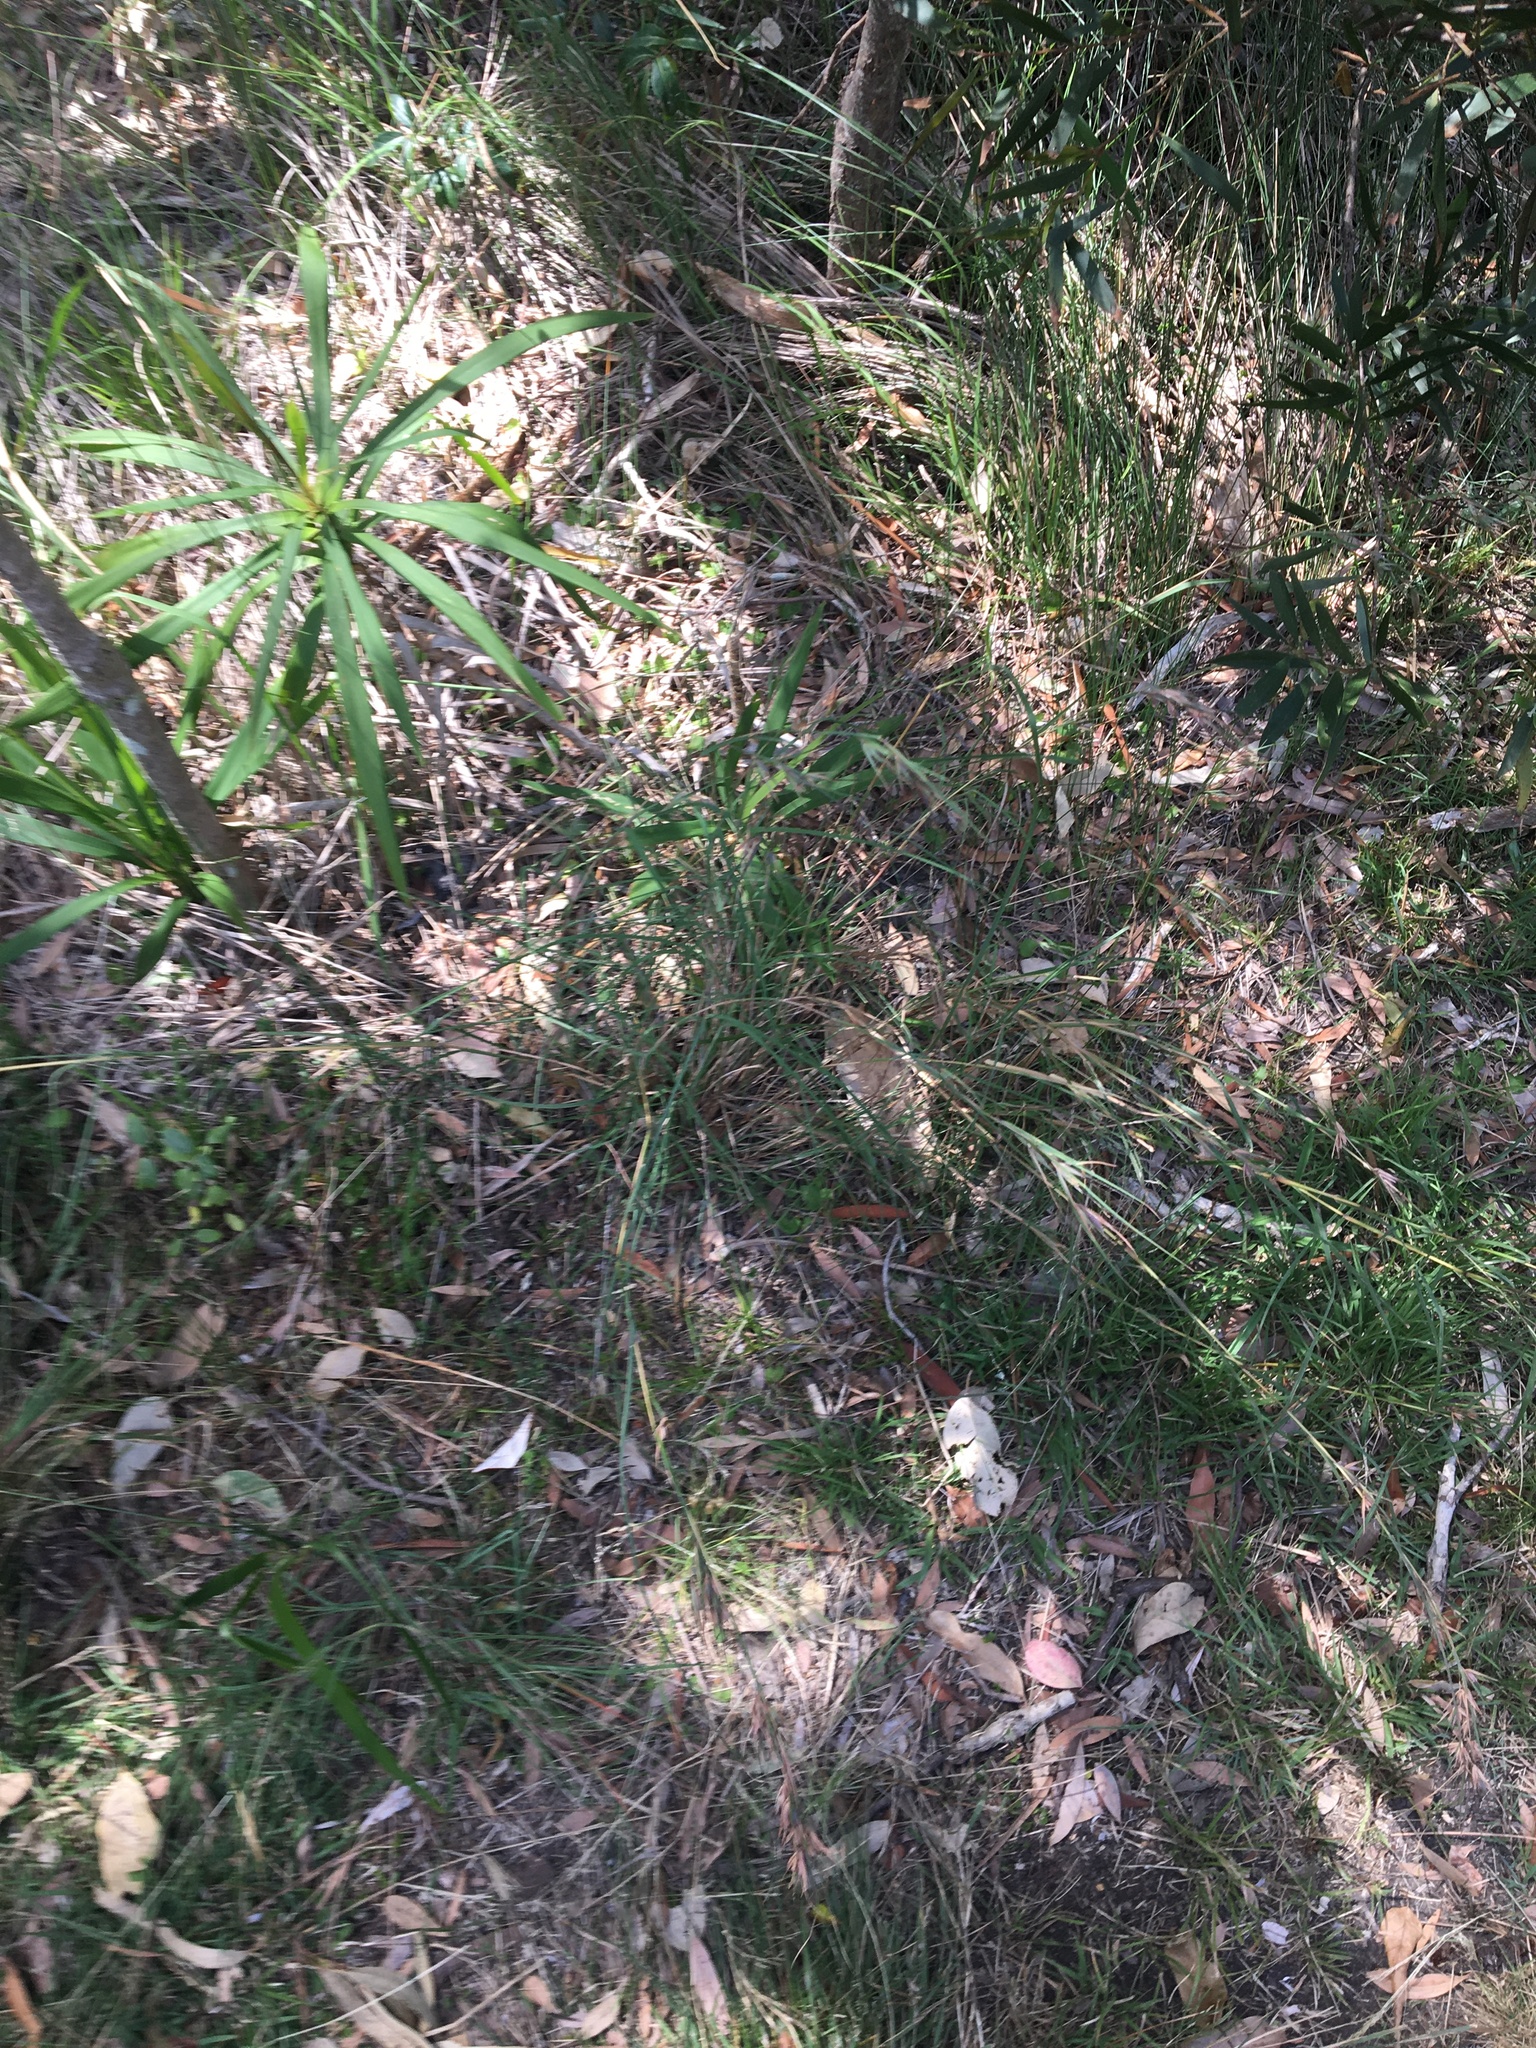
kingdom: Plantae
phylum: Tracheophyta
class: Liliopsida
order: Poales
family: Poaceae
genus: Themeda
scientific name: Themeda triandra
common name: Kangaroo grass
